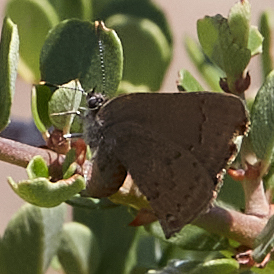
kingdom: Animalia
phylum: Arthropoda
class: Insecta
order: Lepidoptera
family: Lycaenidae
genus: Strymon
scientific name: Strymon saepium
